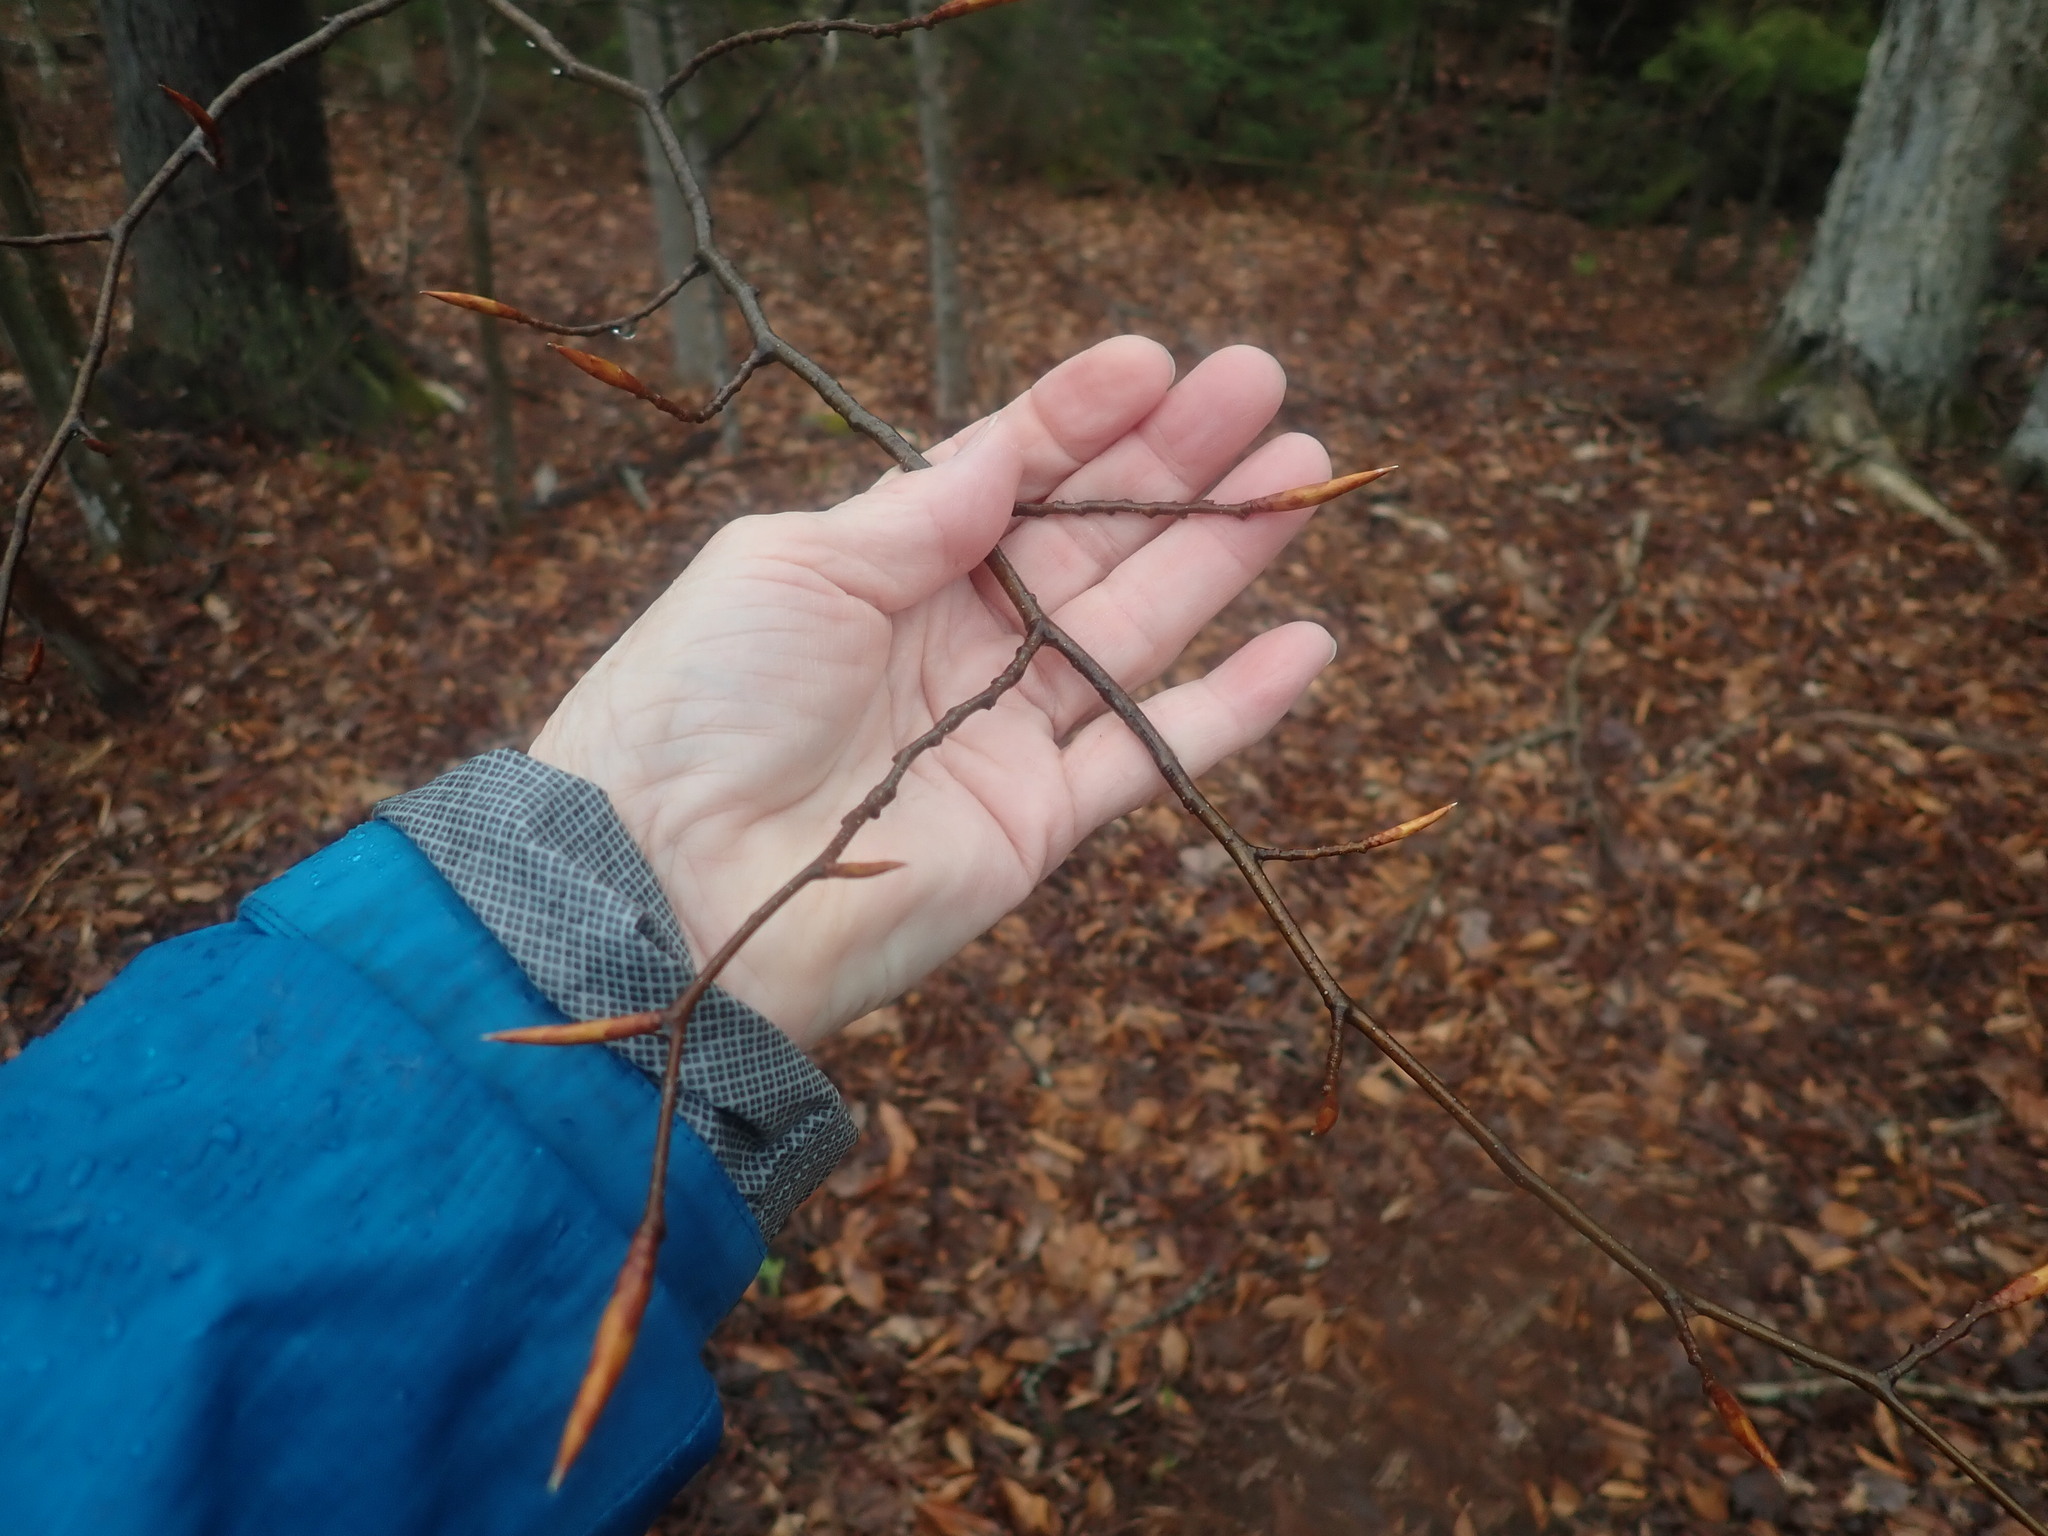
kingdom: Plantae
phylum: Tracheophyta
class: Magnoliopsida
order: Fagales
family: Fagaceae
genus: Fagus
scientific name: Fagus grandifolia
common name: American beech
